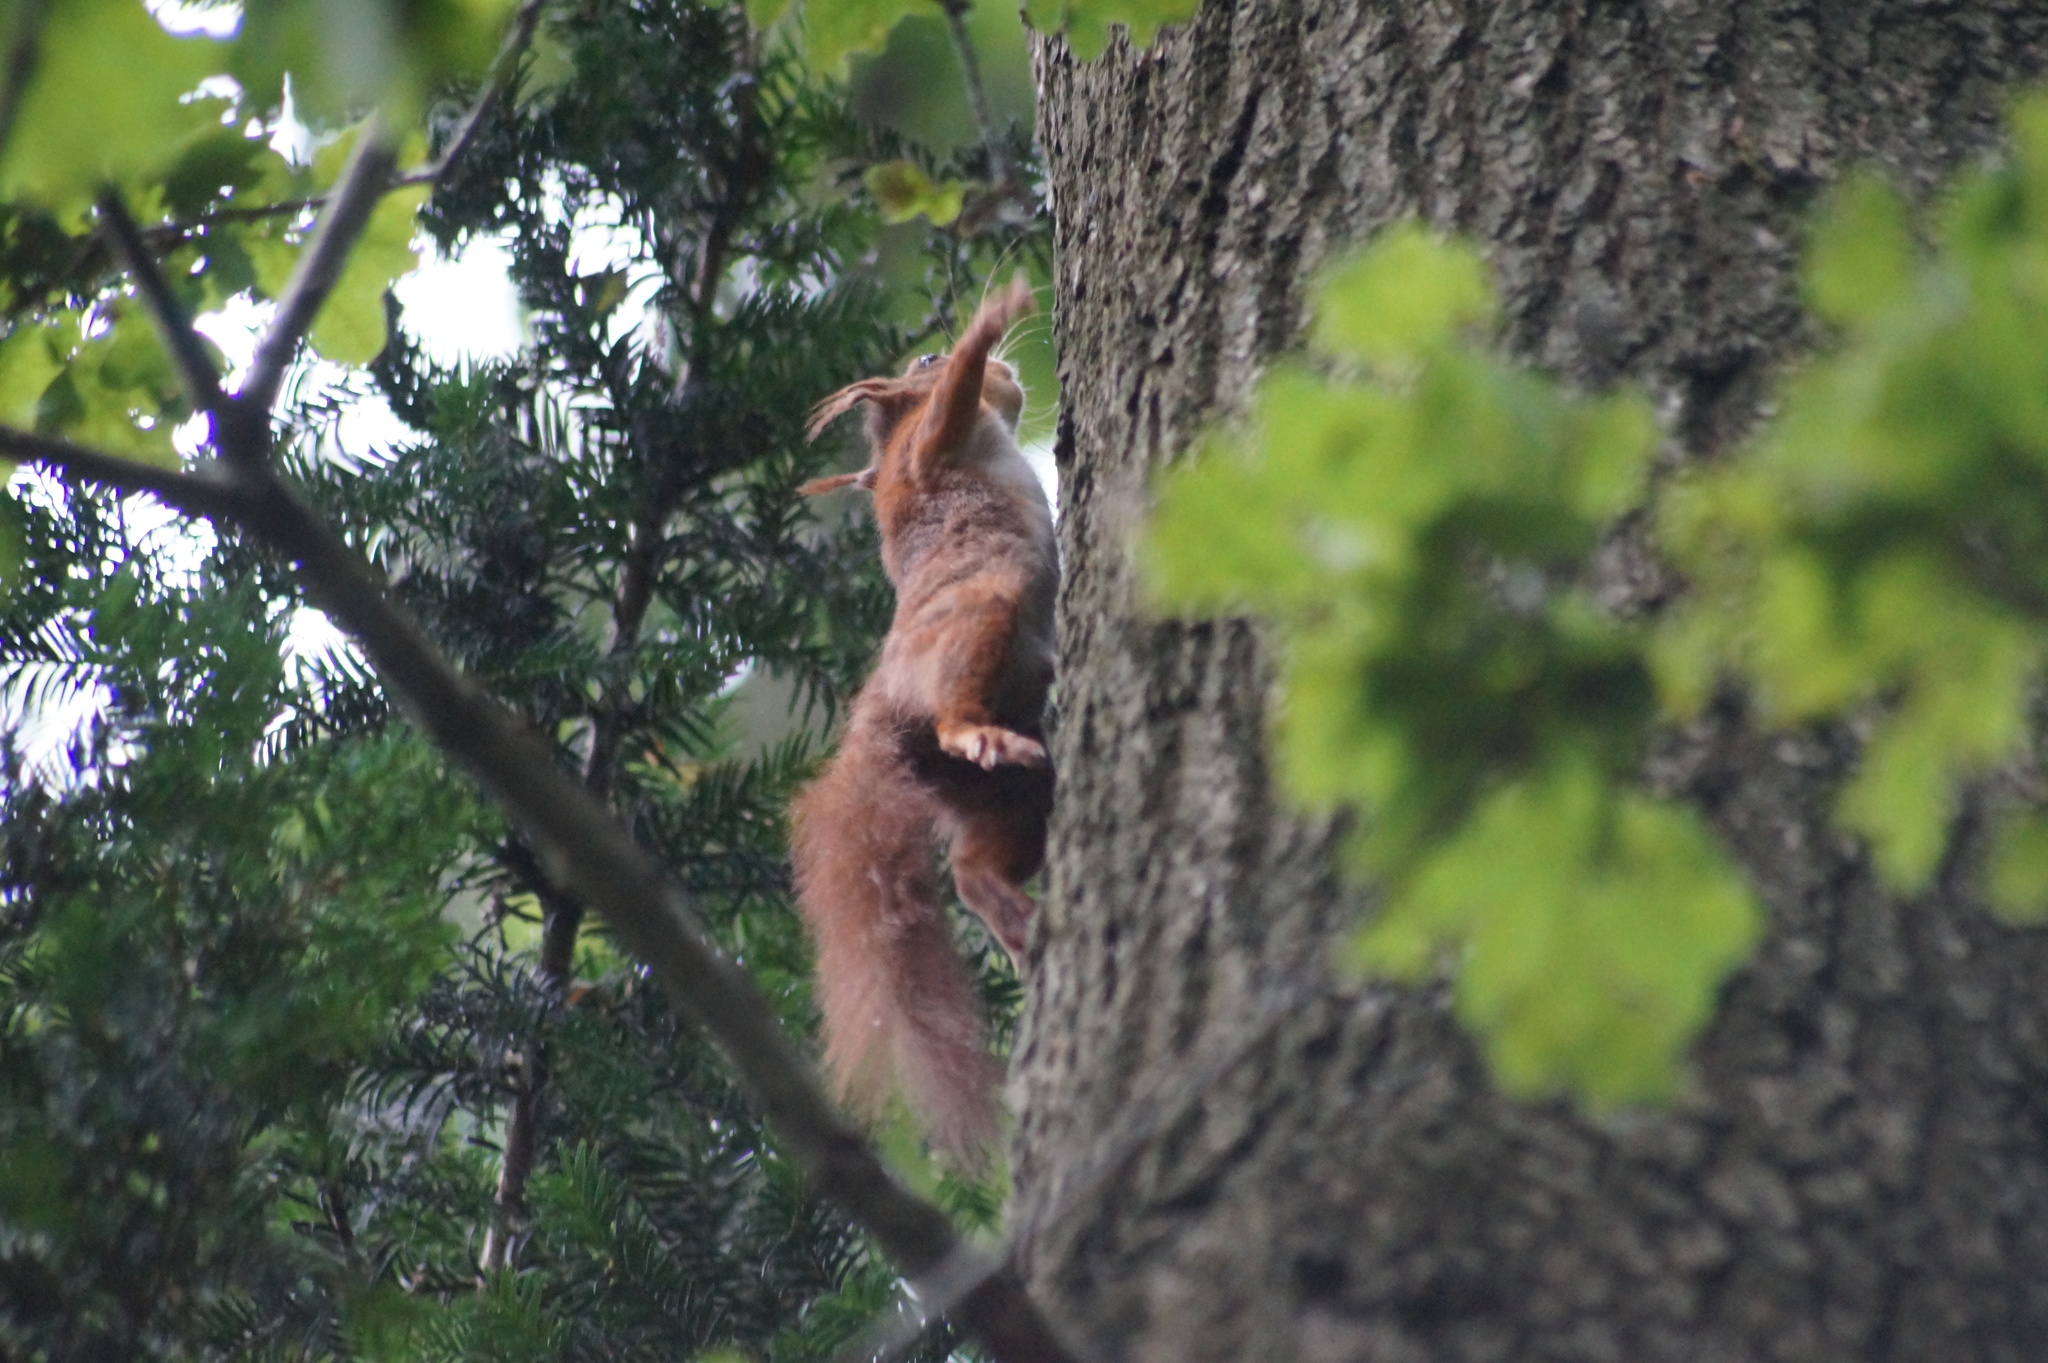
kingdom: Animalia
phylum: Chordata
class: Mammalia
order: Rodentia
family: Sciuridae
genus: Sciurus
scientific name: Sciurus vulgaris
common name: Eurasian red squirrel
